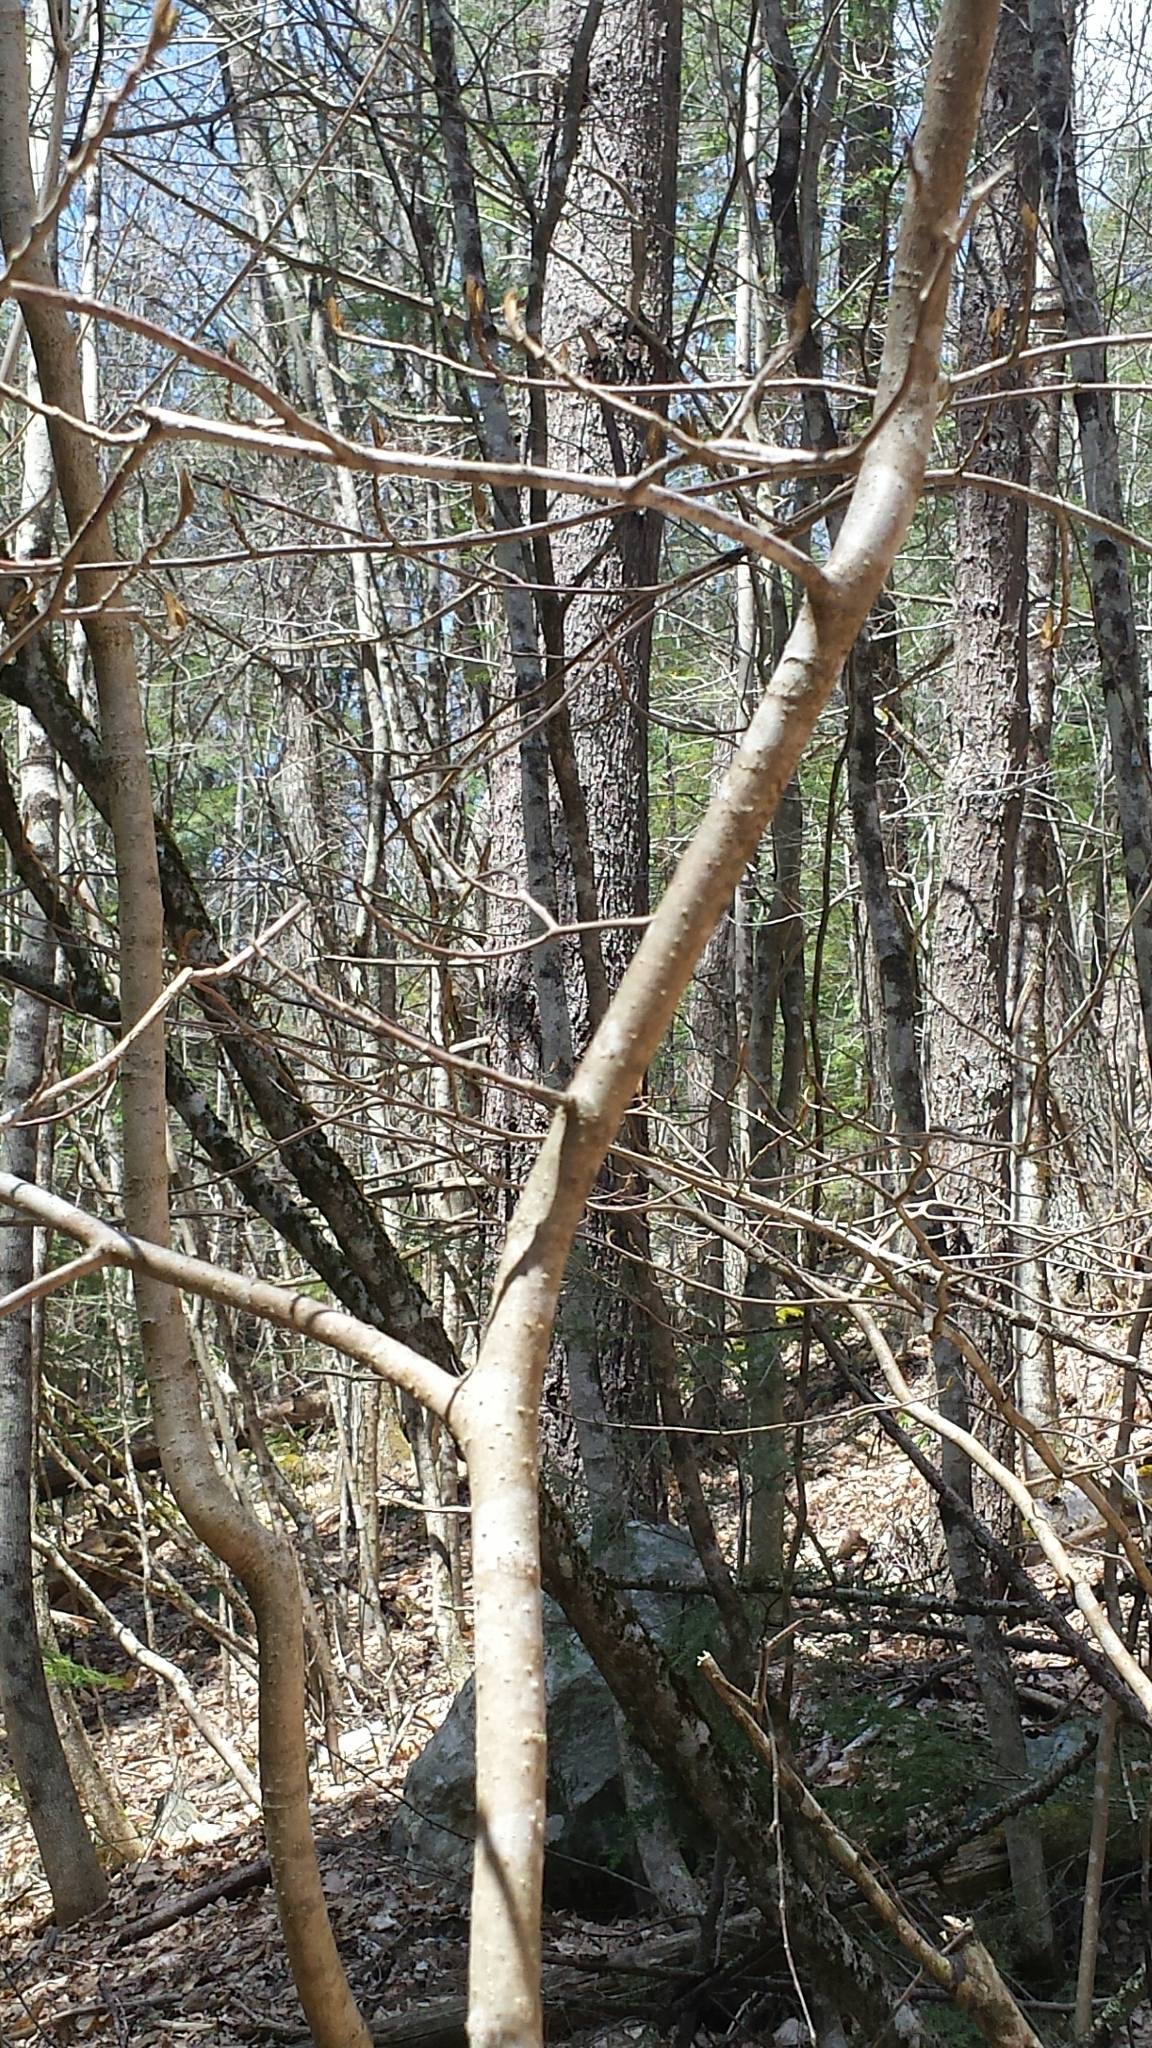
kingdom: Plantae
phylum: Tracheophyta
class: Magnoliopsida
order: Saxifragales
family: Hamamelidaceae
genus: Hamamelis
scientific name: Hamamelis virginiana
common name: Witch-hazel
